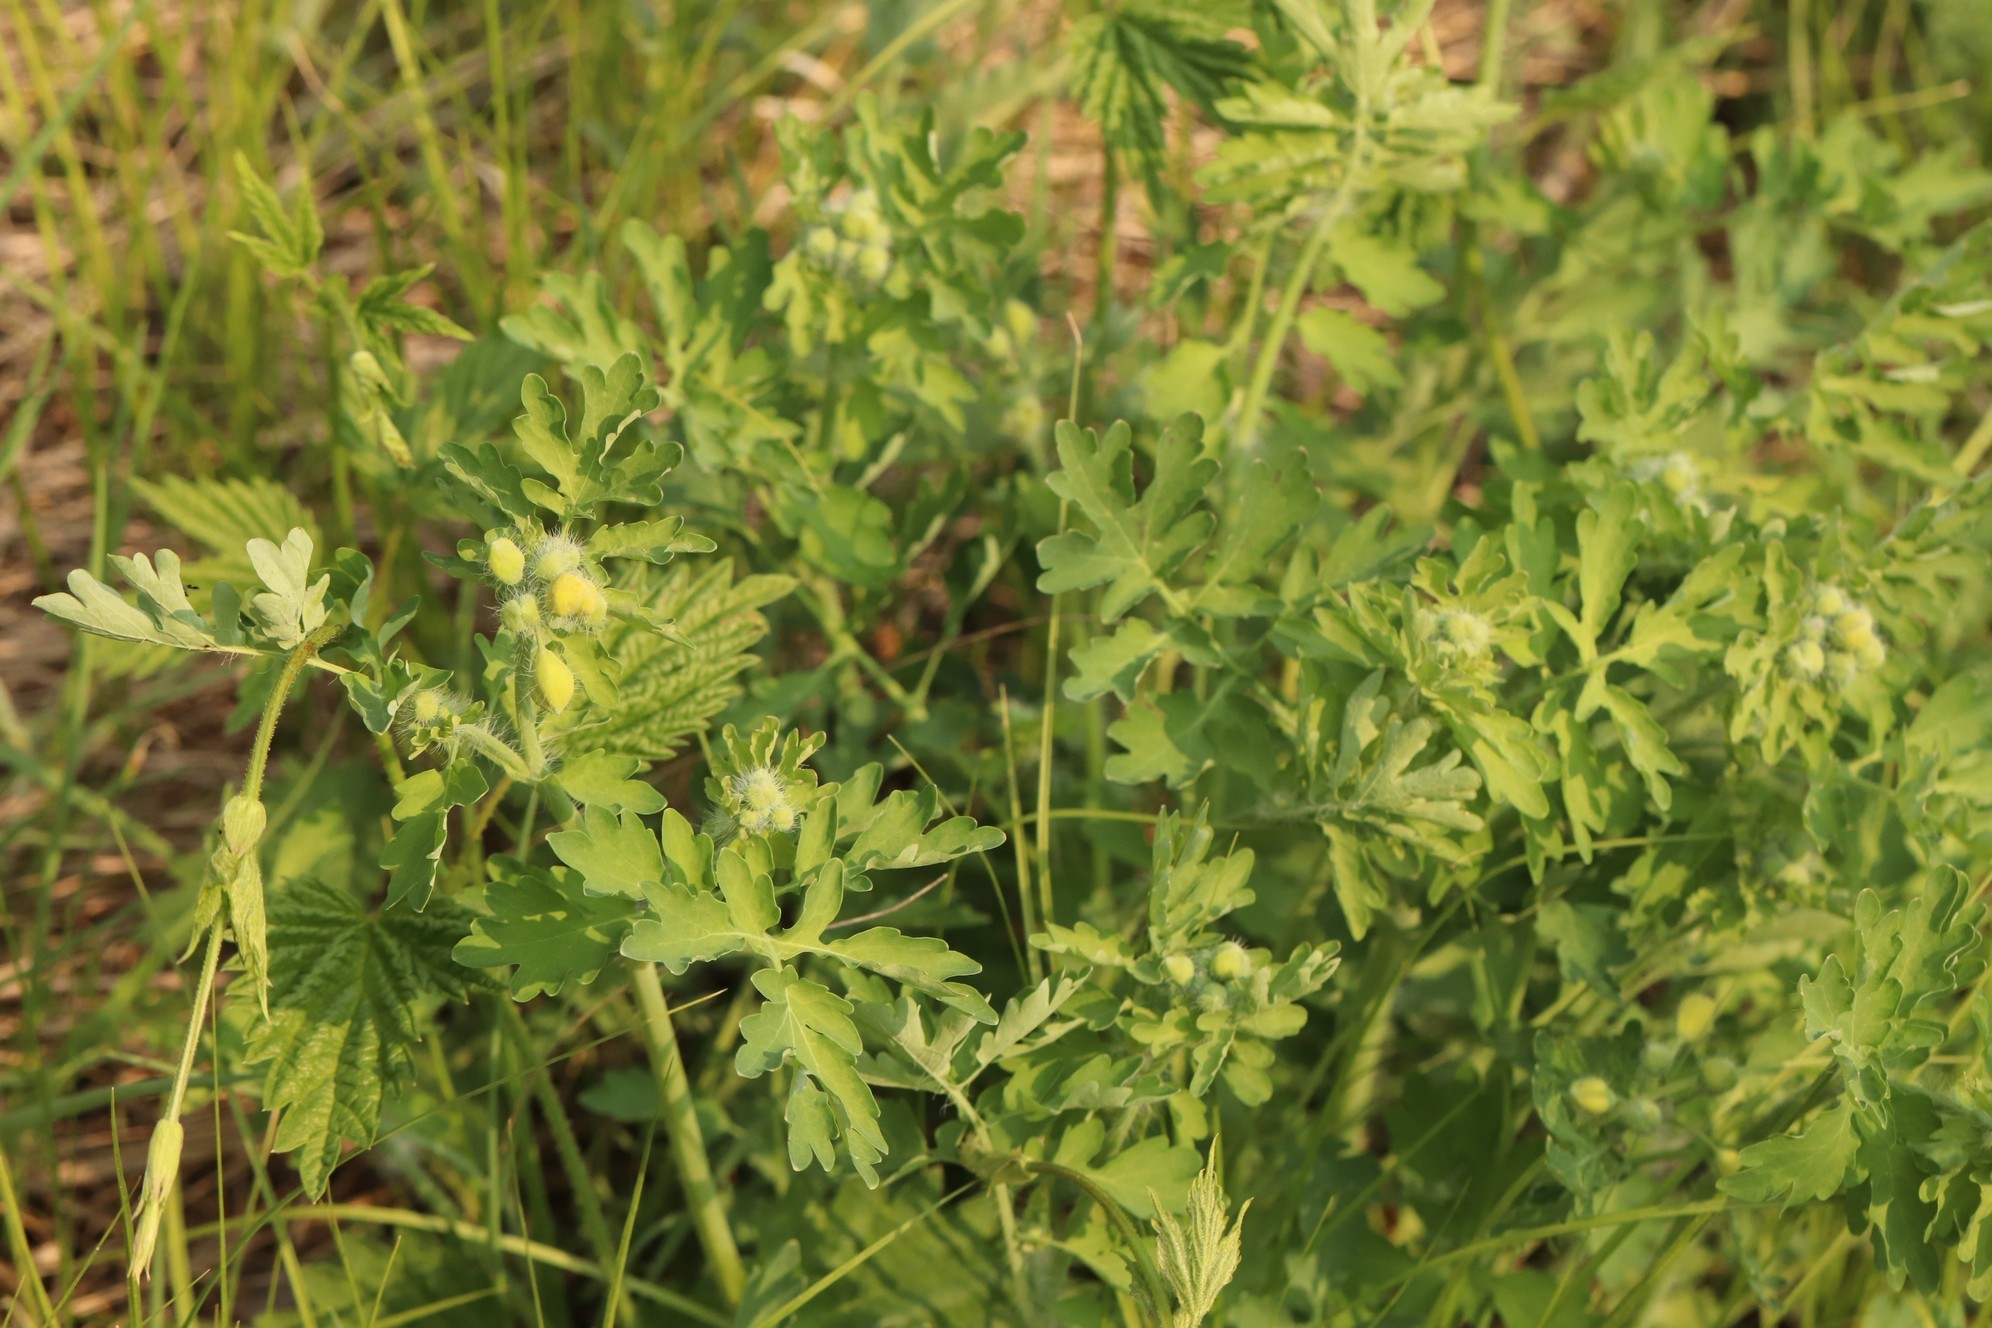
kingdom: Plantae
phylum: Tracheophyta
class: Magnoliopsida
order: Ranunculales
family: Papaveraceae
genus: Chelidonium
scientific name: Chelidonium majus
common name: Greater celandine
